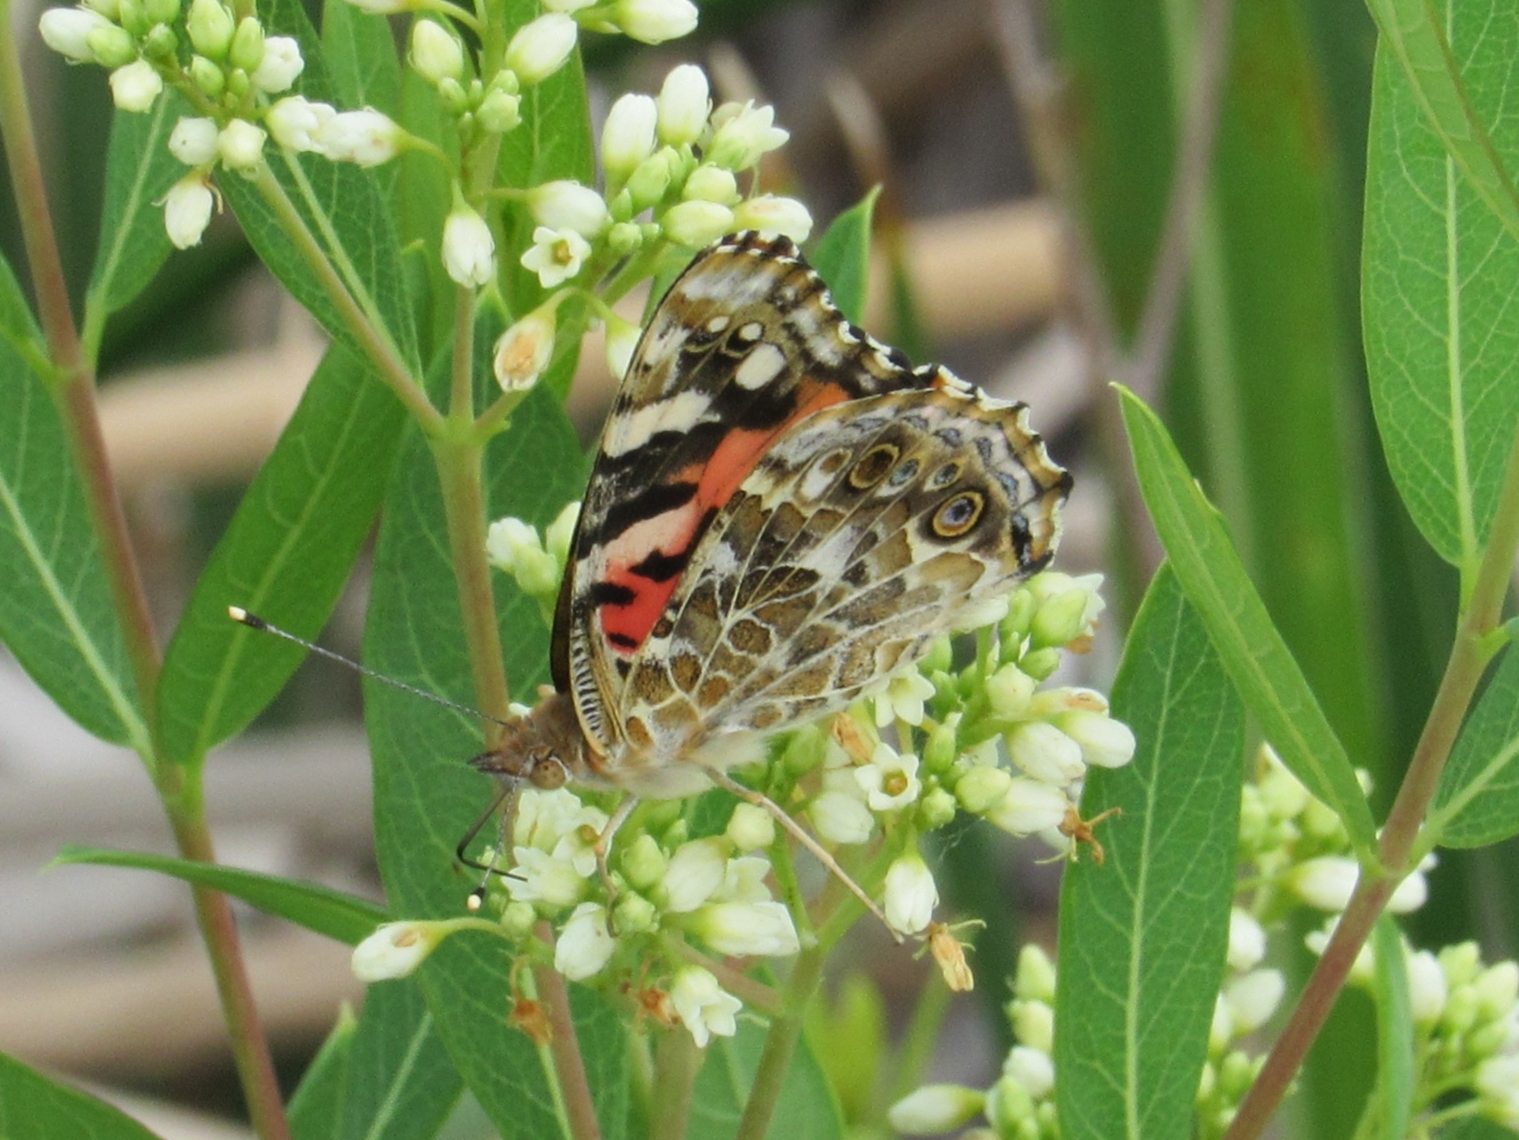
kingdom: Animalia
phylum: Arthropoda
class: Insecta
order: Lepidoptera
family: Nymphalidae
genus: Vanessa
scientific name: Vanessa cardui
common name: Painted lady
